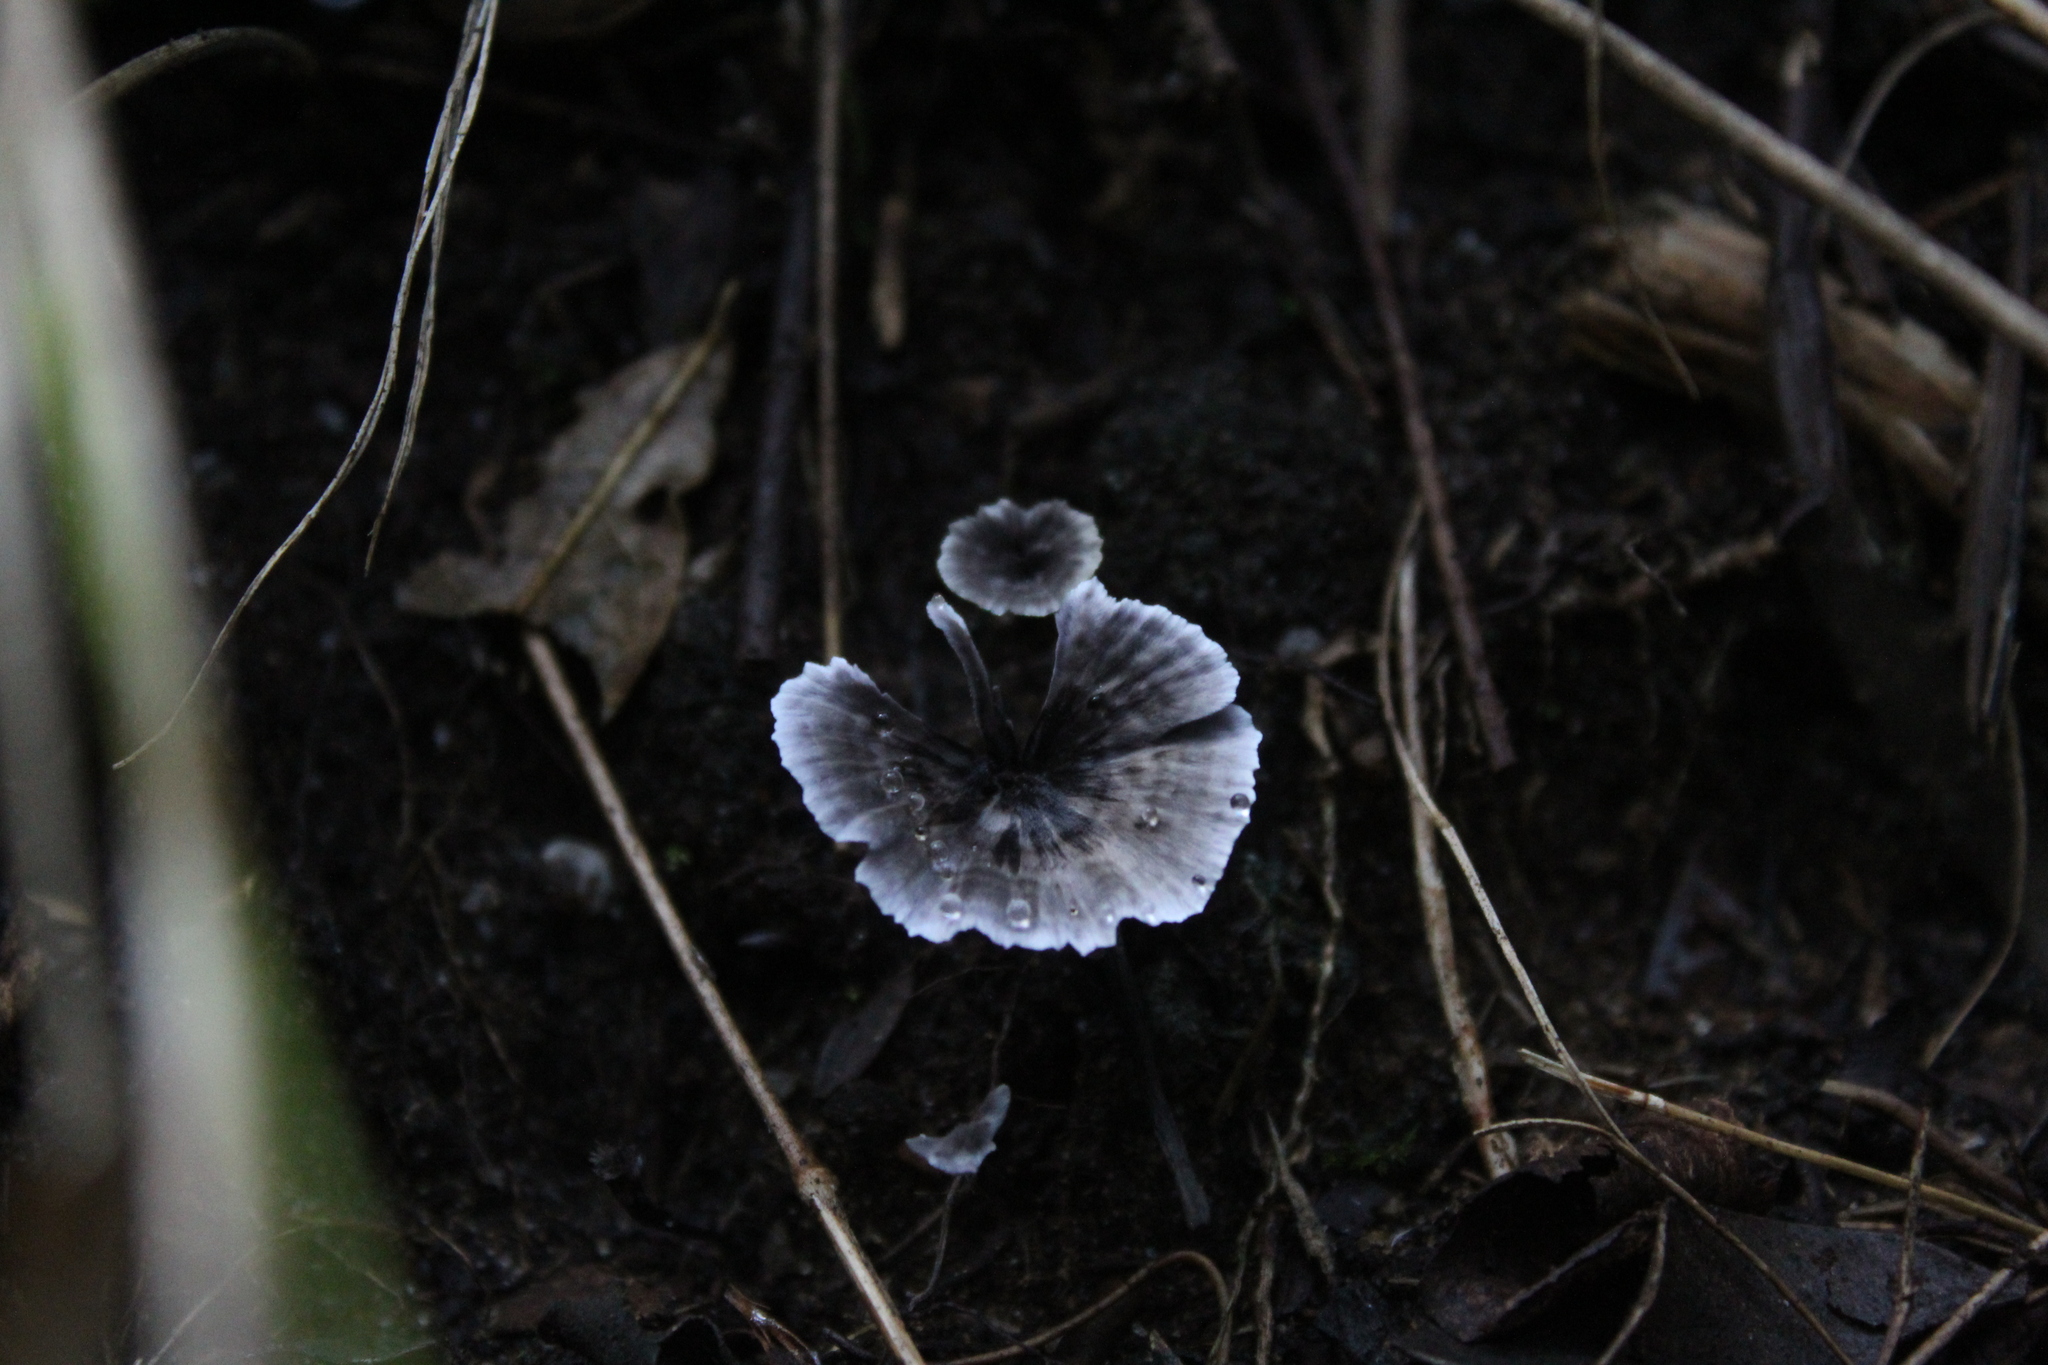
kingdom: Fungi
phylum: Basidiomycota
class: Agaricomycetes
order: Thelephorales
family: Thelephoraceae
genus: Phellodon
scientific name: Phellodon niger
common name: Black tooth
